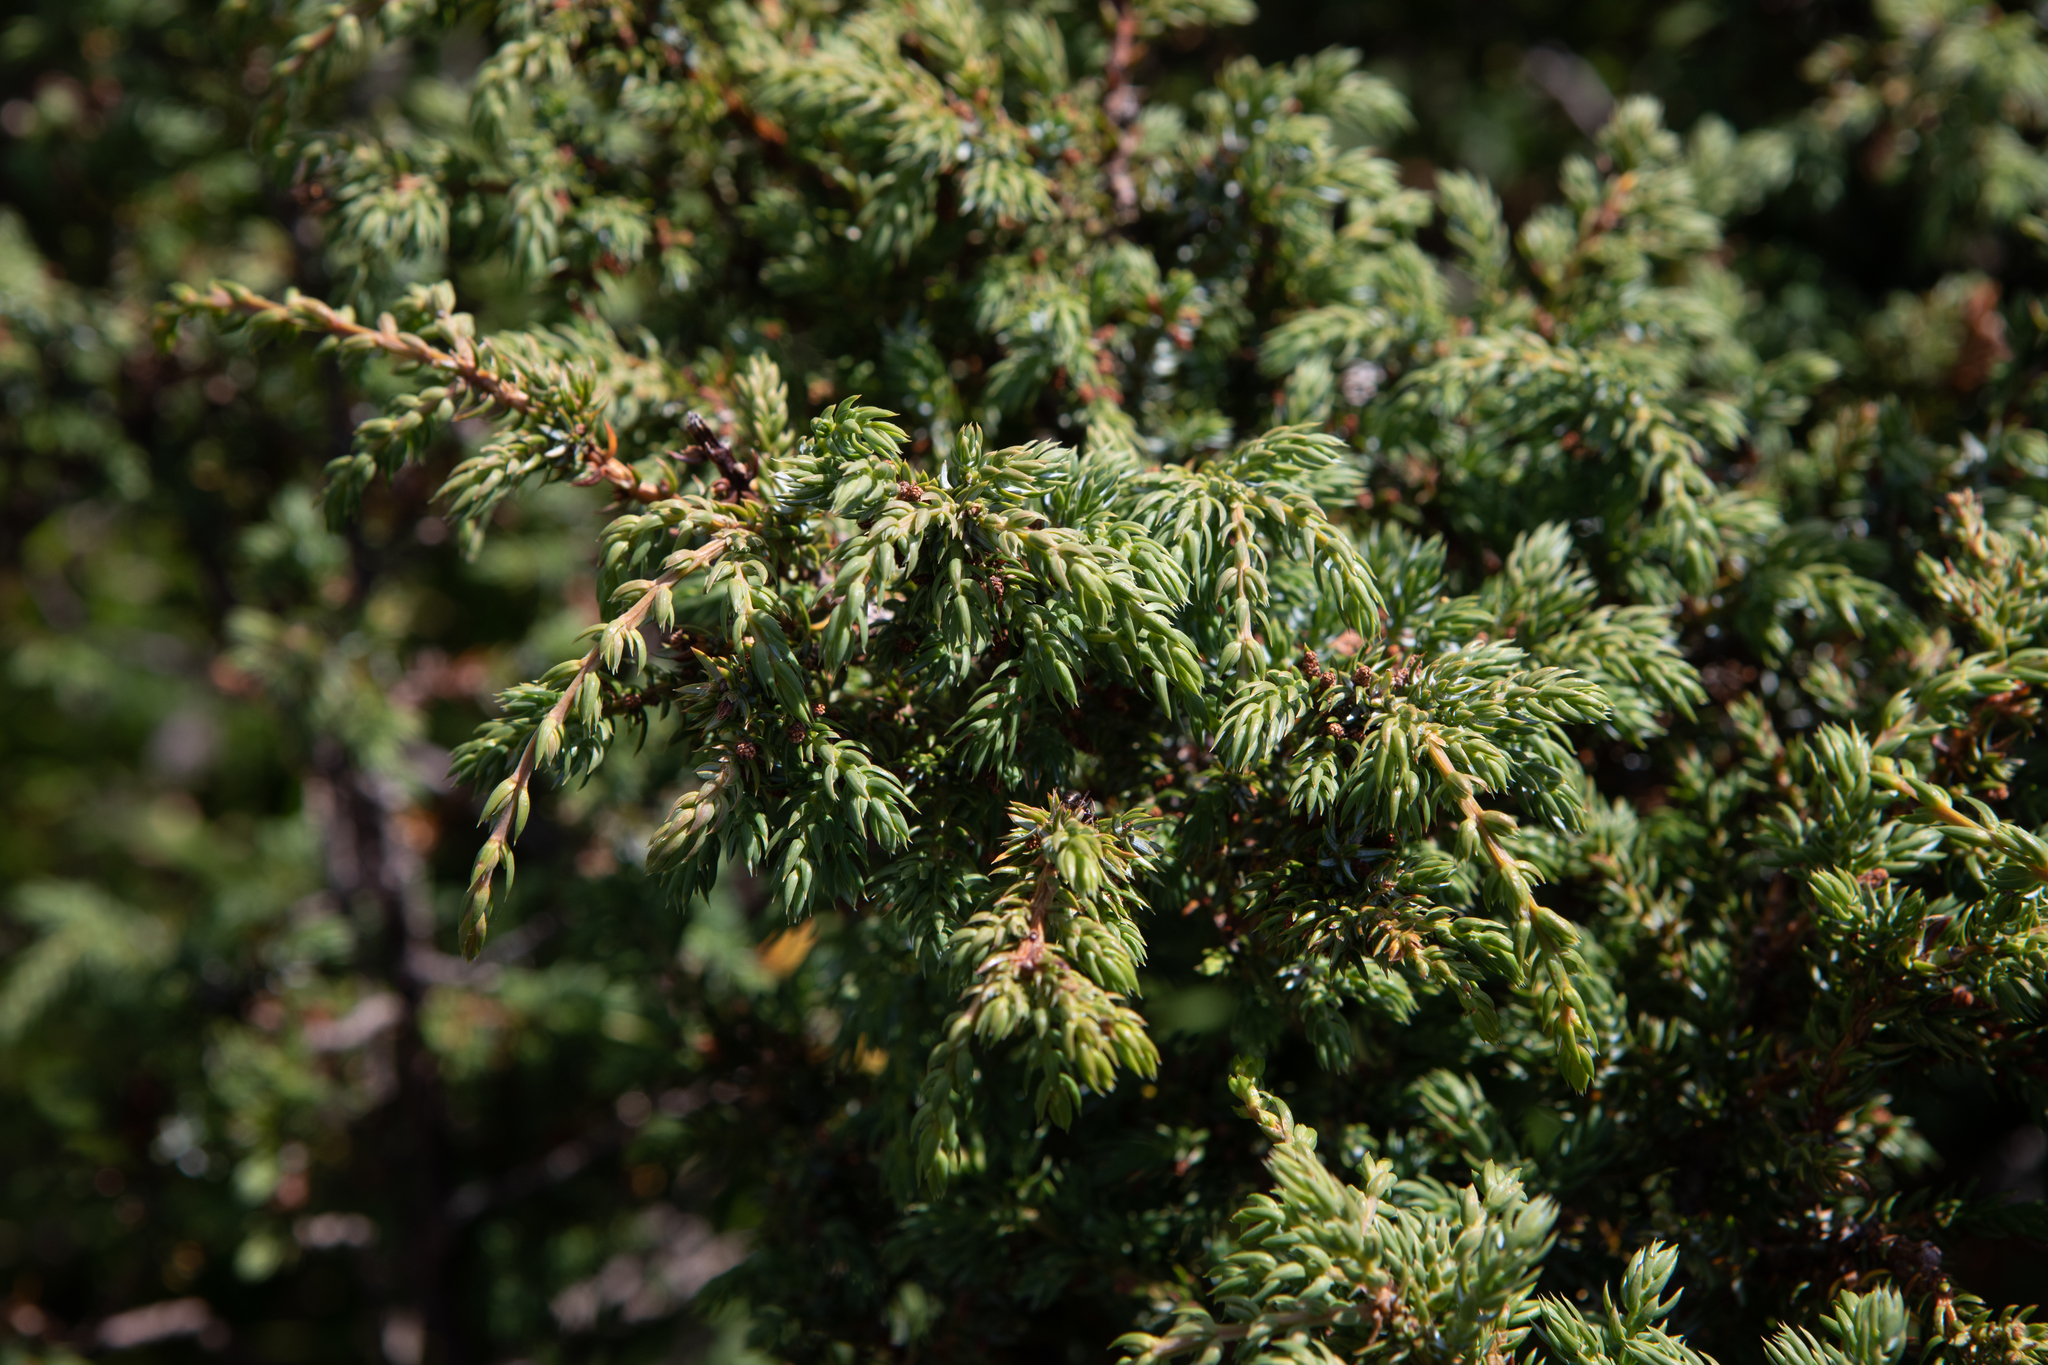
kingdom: Plantae
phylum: Tracheophyta
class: Pinopsida
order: Pinales
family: Cupressaceae
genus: Juniperus
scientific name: Juniperus communis
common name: Common juniper
